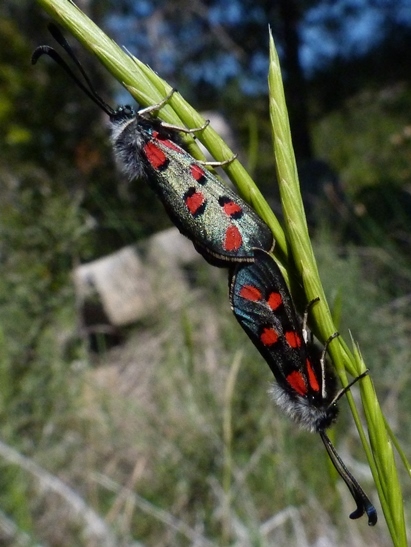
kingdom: Animalia
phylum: Arthropoda
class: Insecta
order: Lepidoptera
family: Zygaenidae
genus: Zygaena
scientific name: Zygaena rhadamanthus
